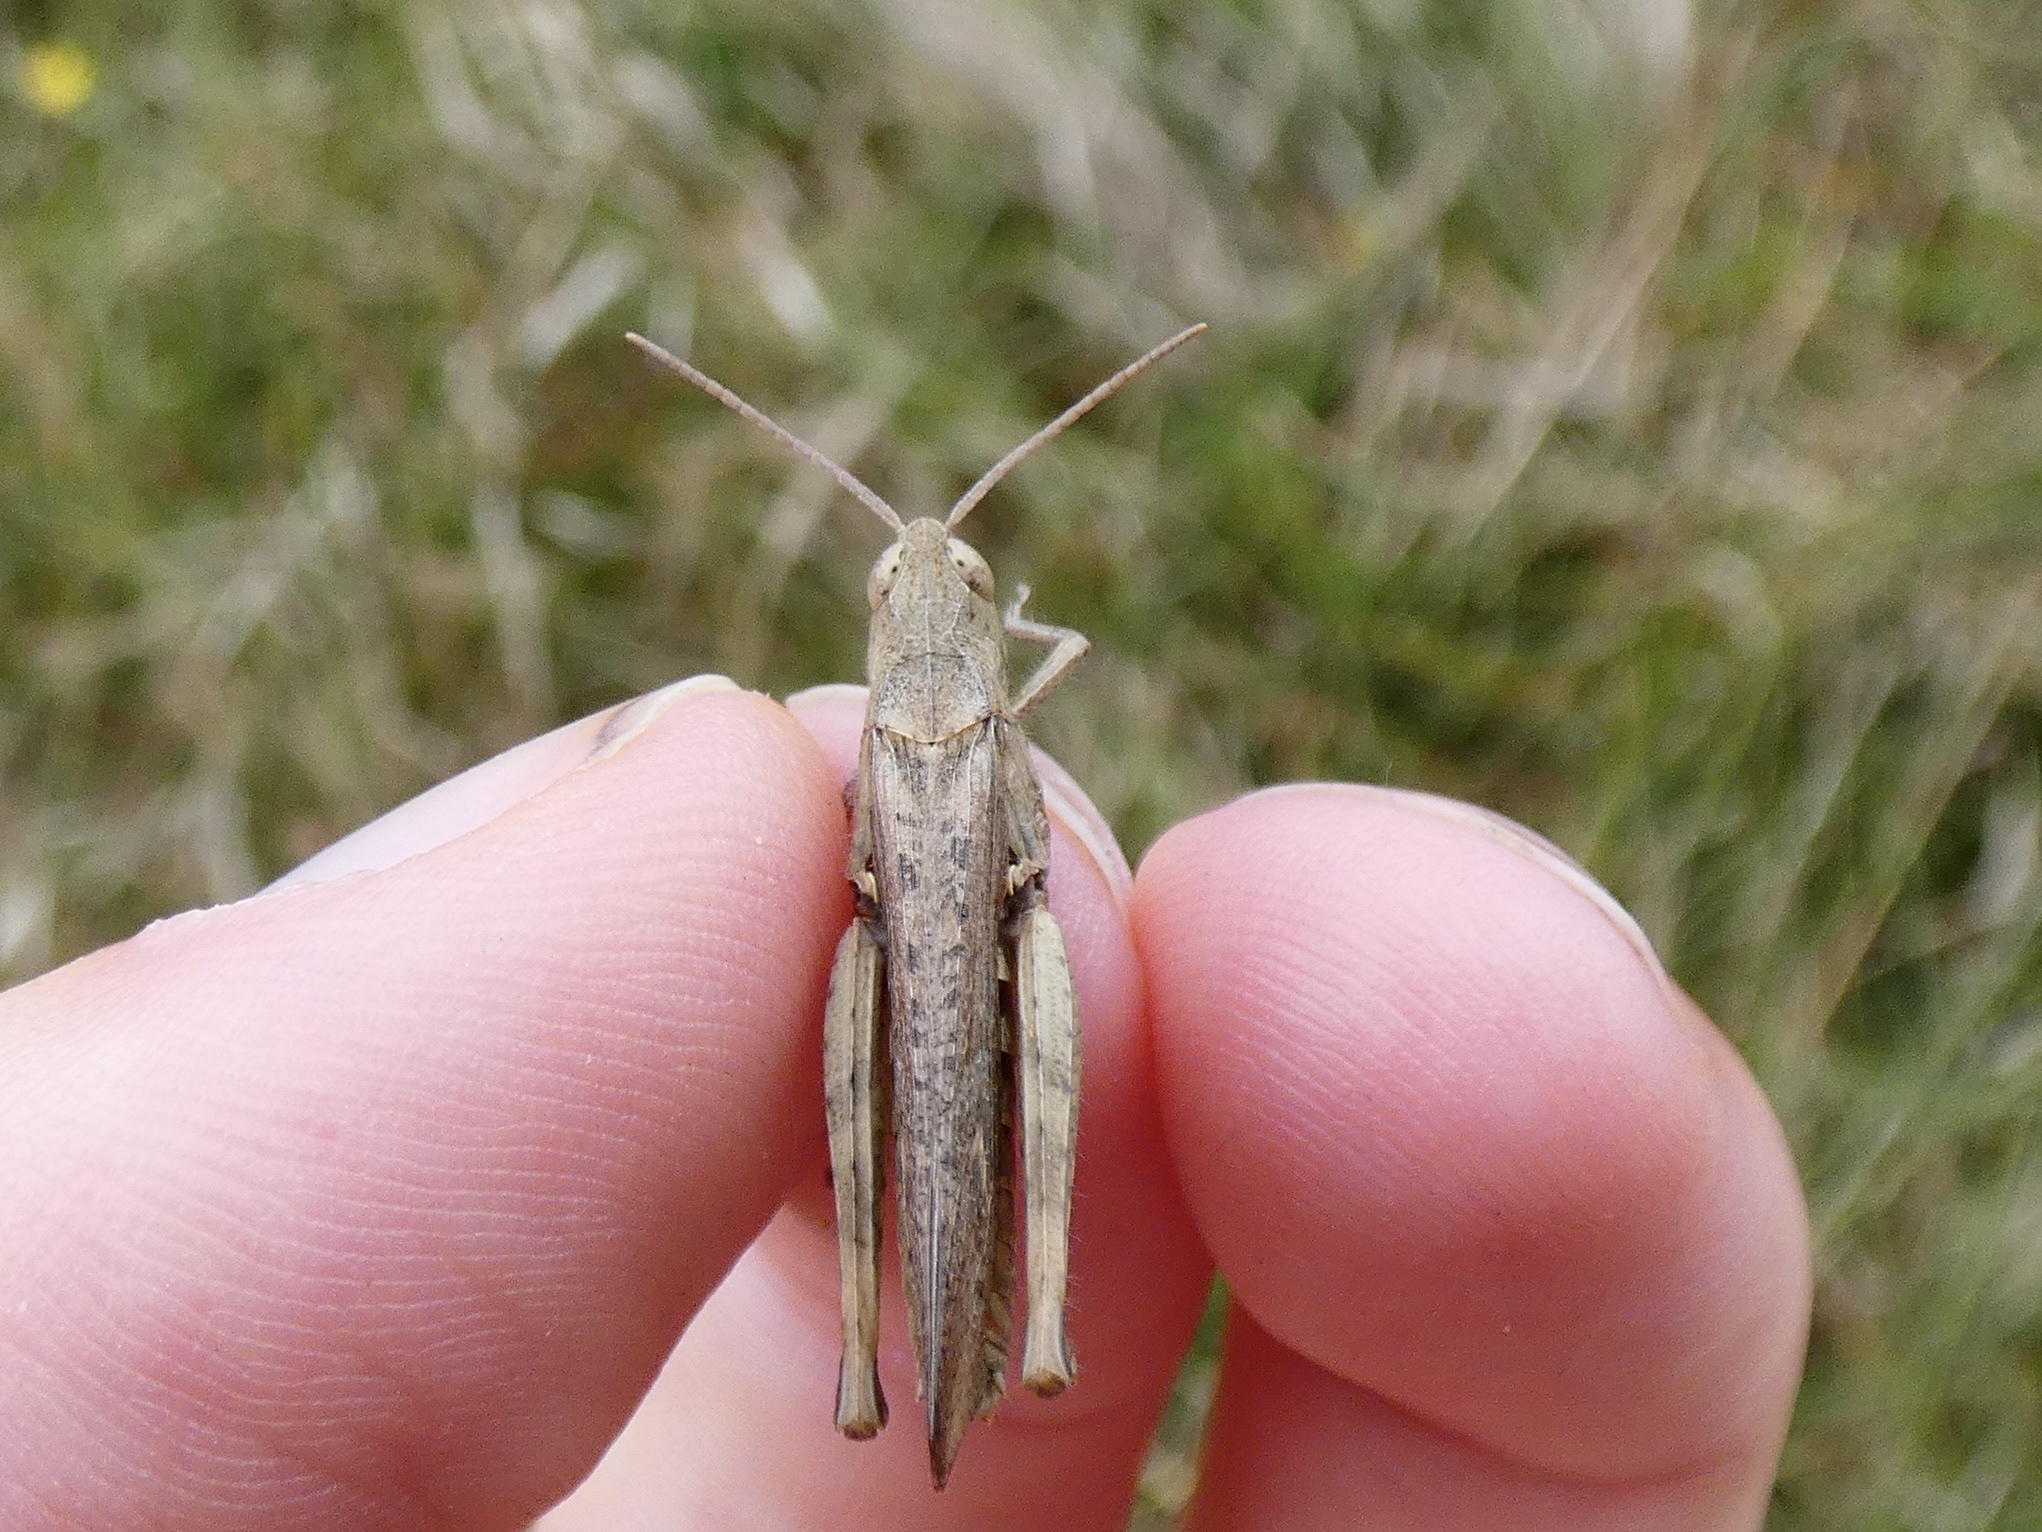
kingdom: Animalia
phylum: Arthropoda
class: Insecta
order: Orthoptera
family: Acrididae
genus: Chorthippus
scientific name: Chorthippus brunneus
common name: Field grasshopper
